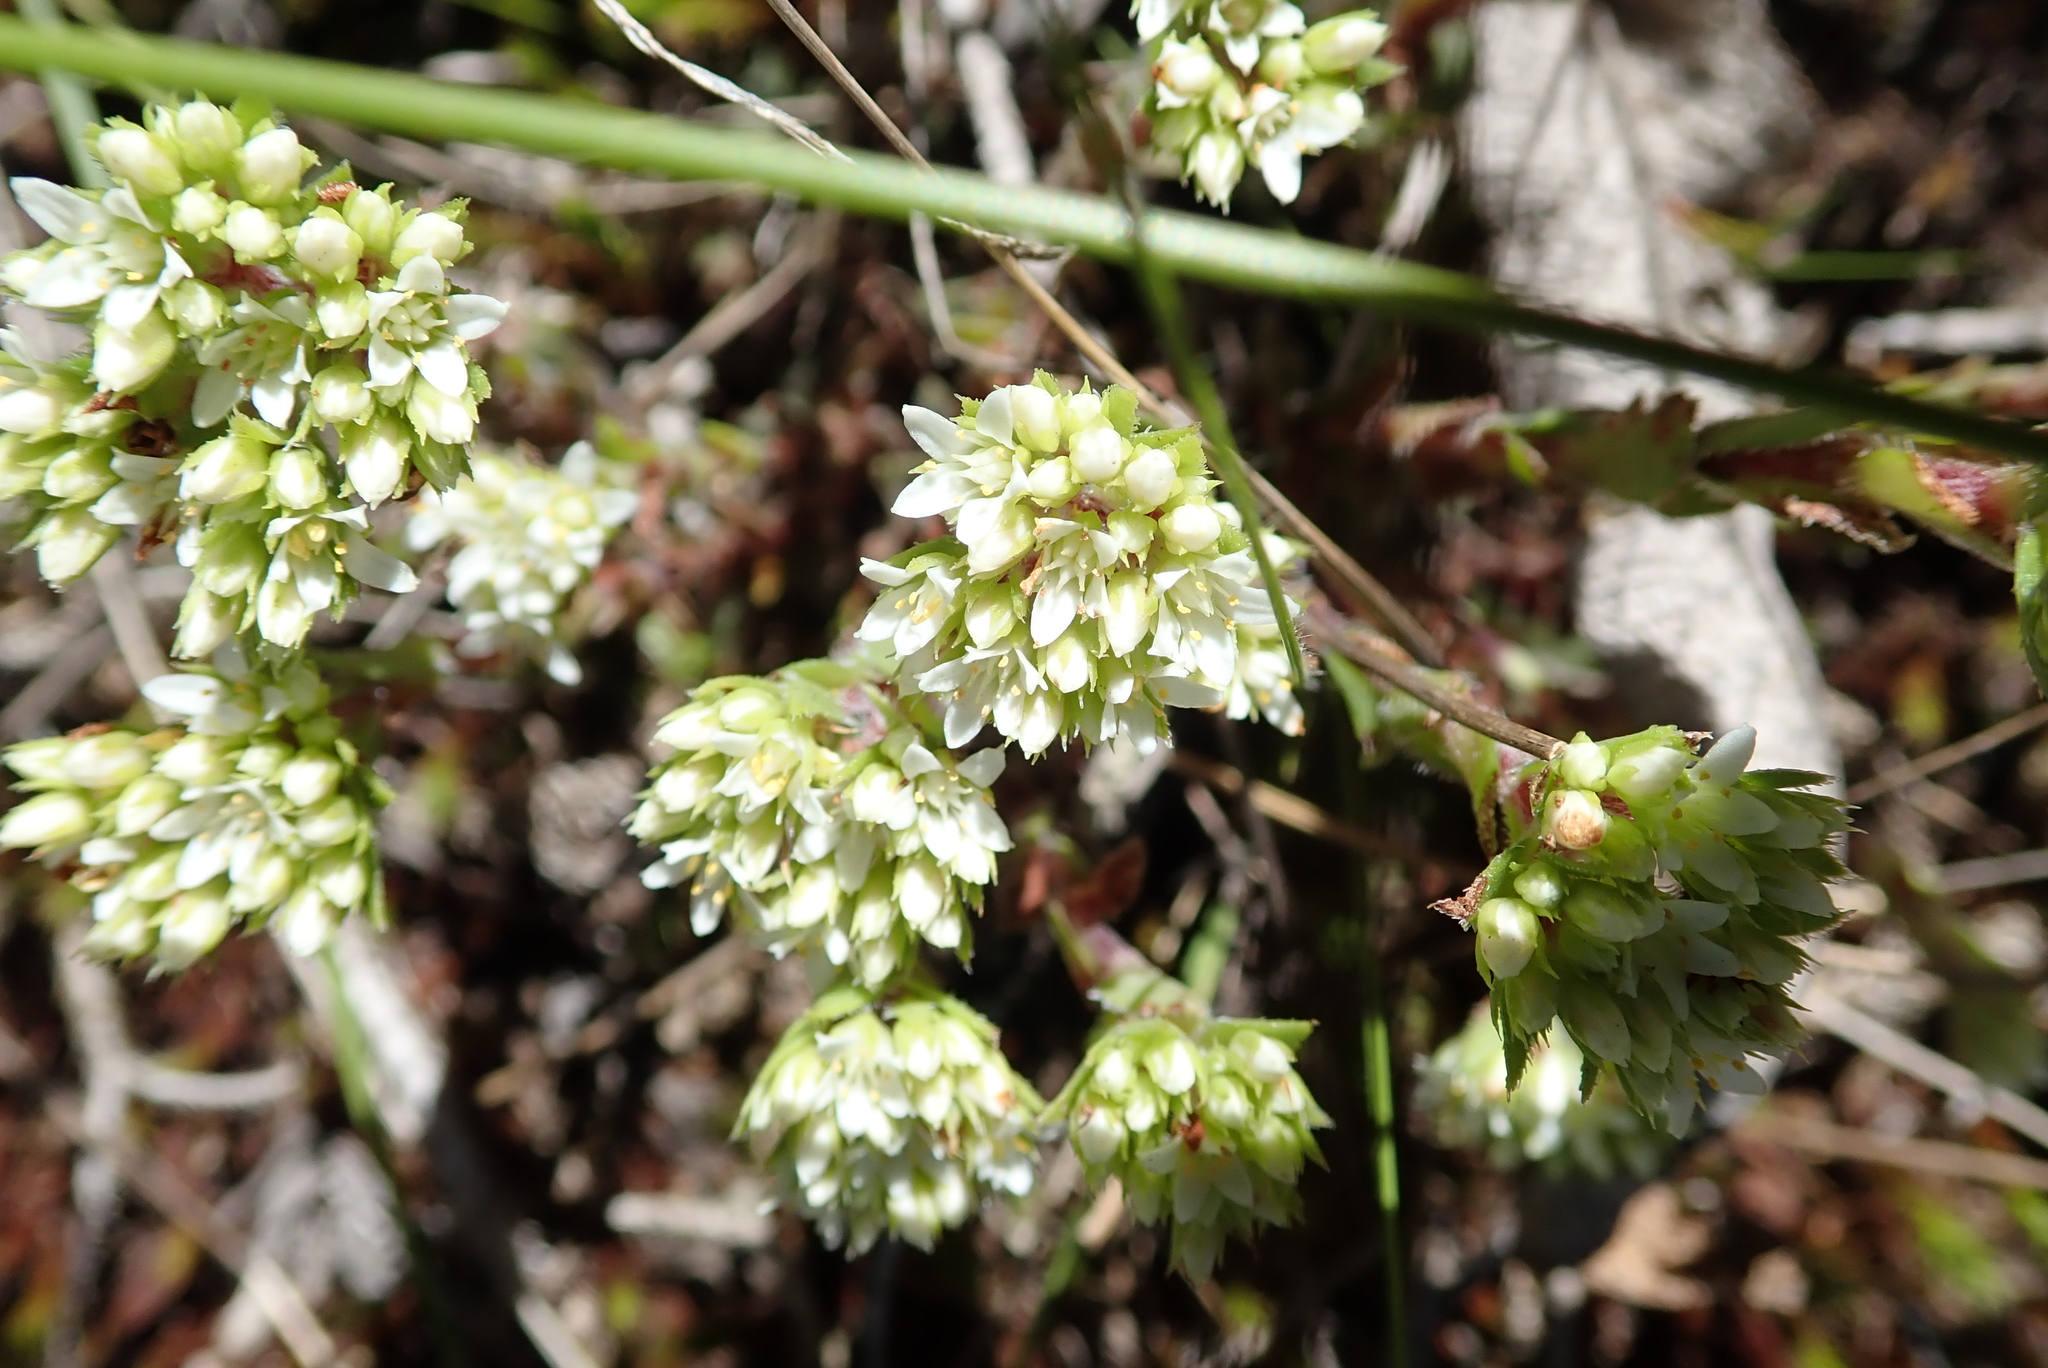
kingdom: Plantae
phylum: Tracheophyta
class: Magnoliopsida
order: Saxifragales
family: Crassulaceae
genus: Crassula
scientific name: Crassula natalensis
